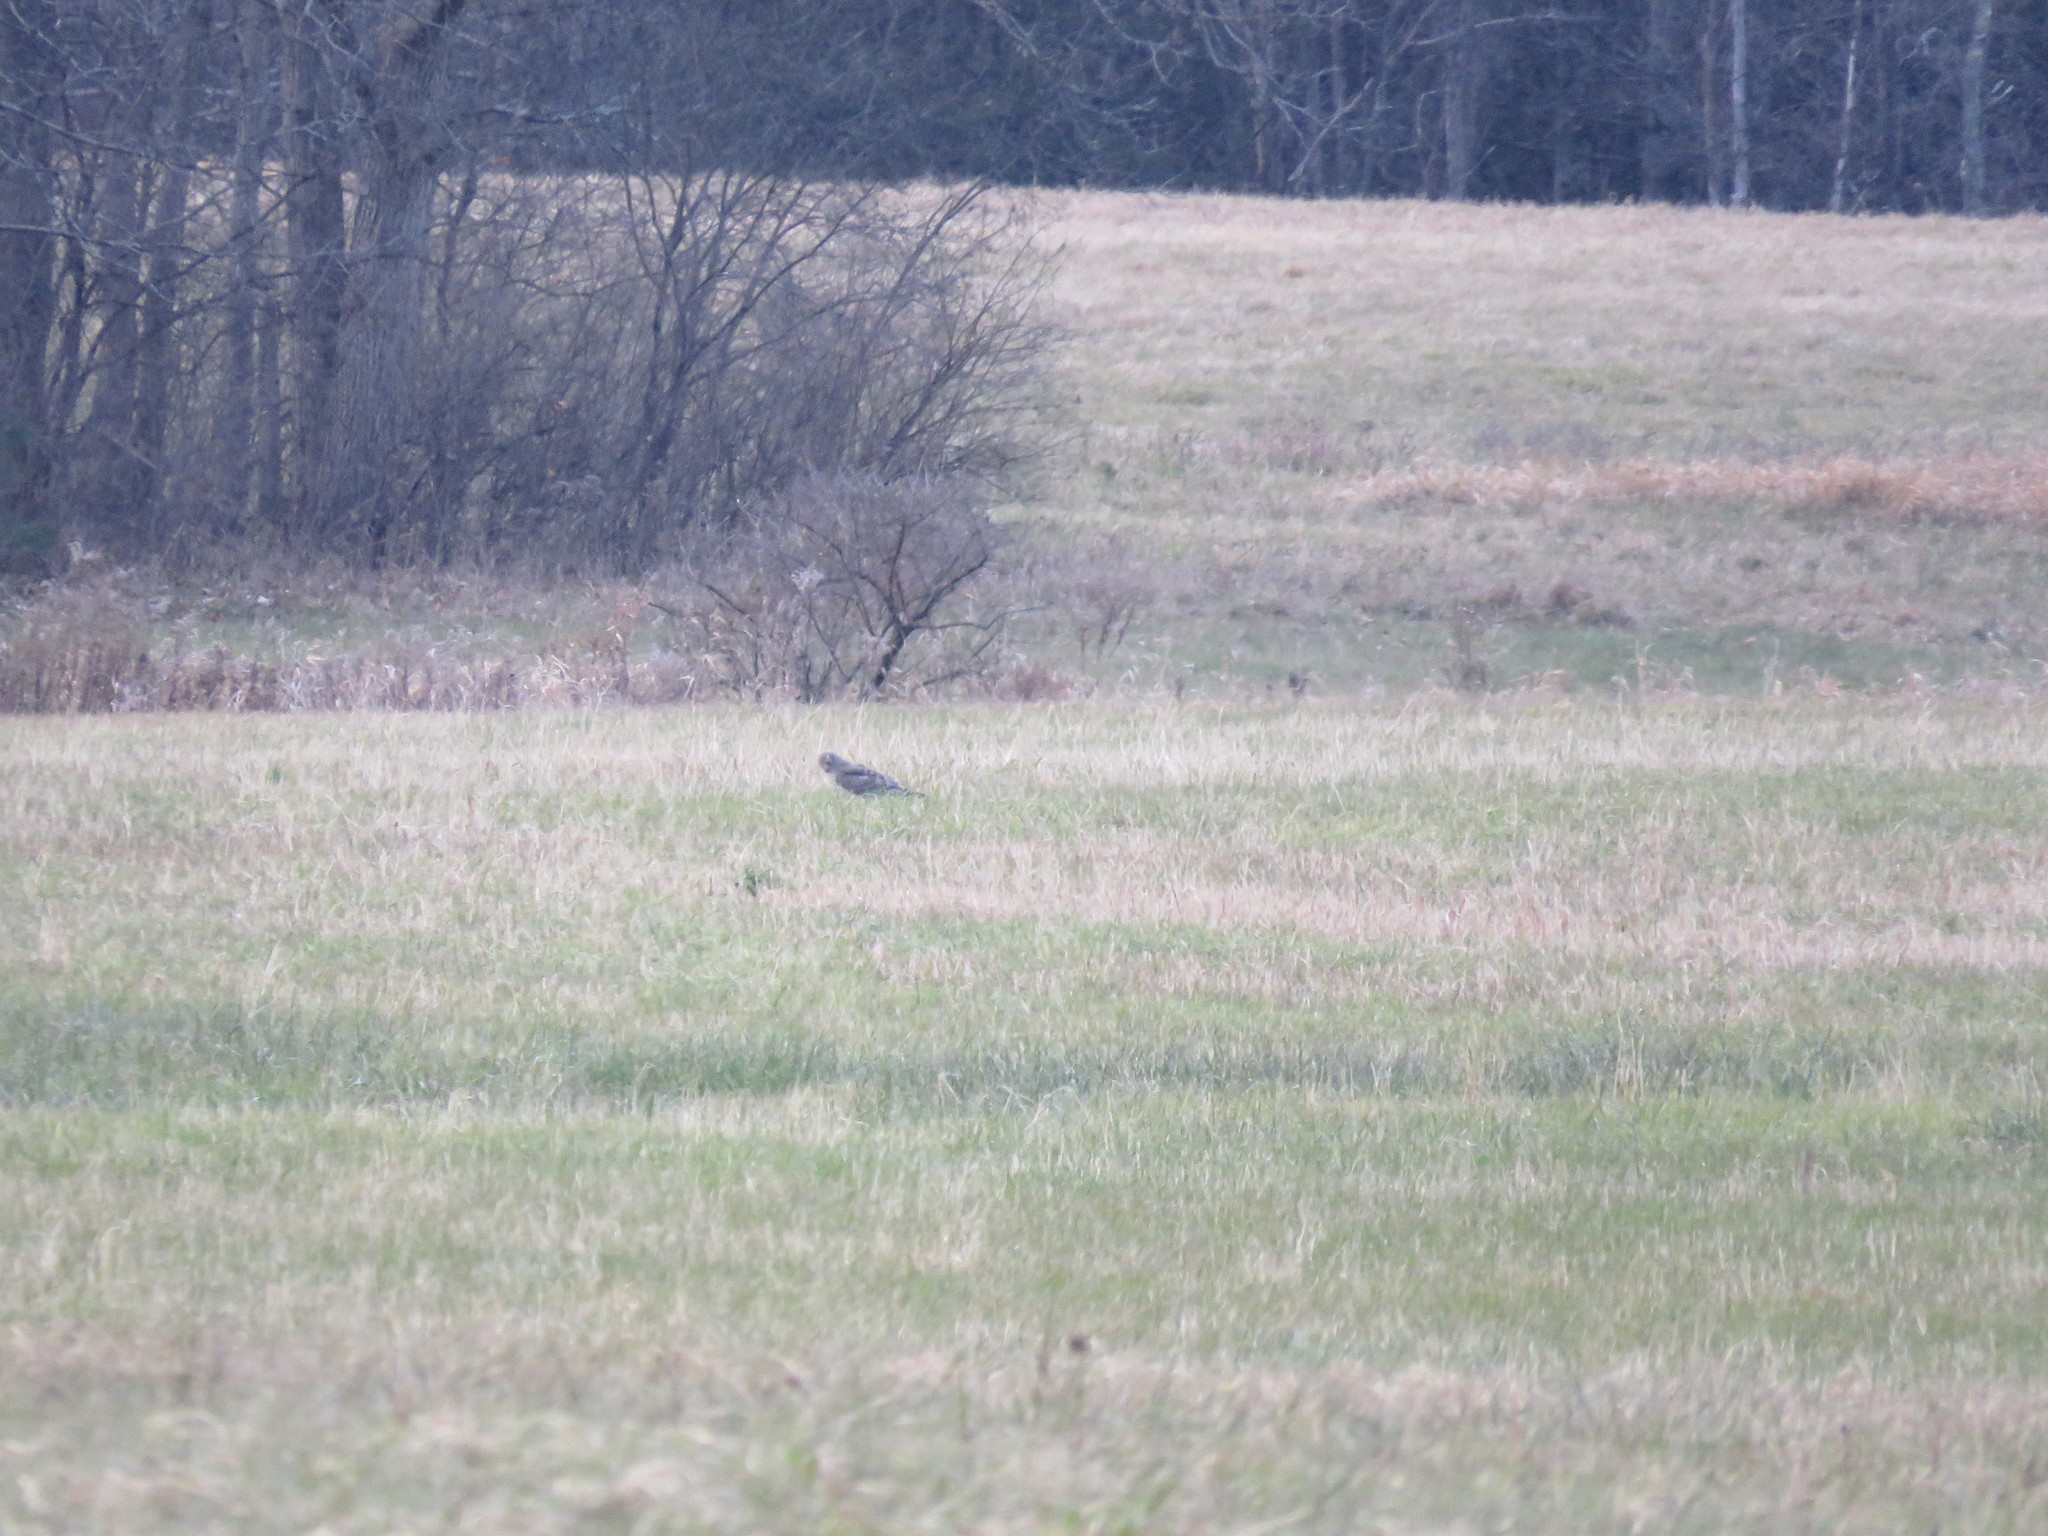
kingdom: Animalia
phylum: Chordata
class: Aves
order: Accipitriformes
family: Accipitridae
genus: Circus
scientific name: Circus cyaneus
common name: Hen harrier
